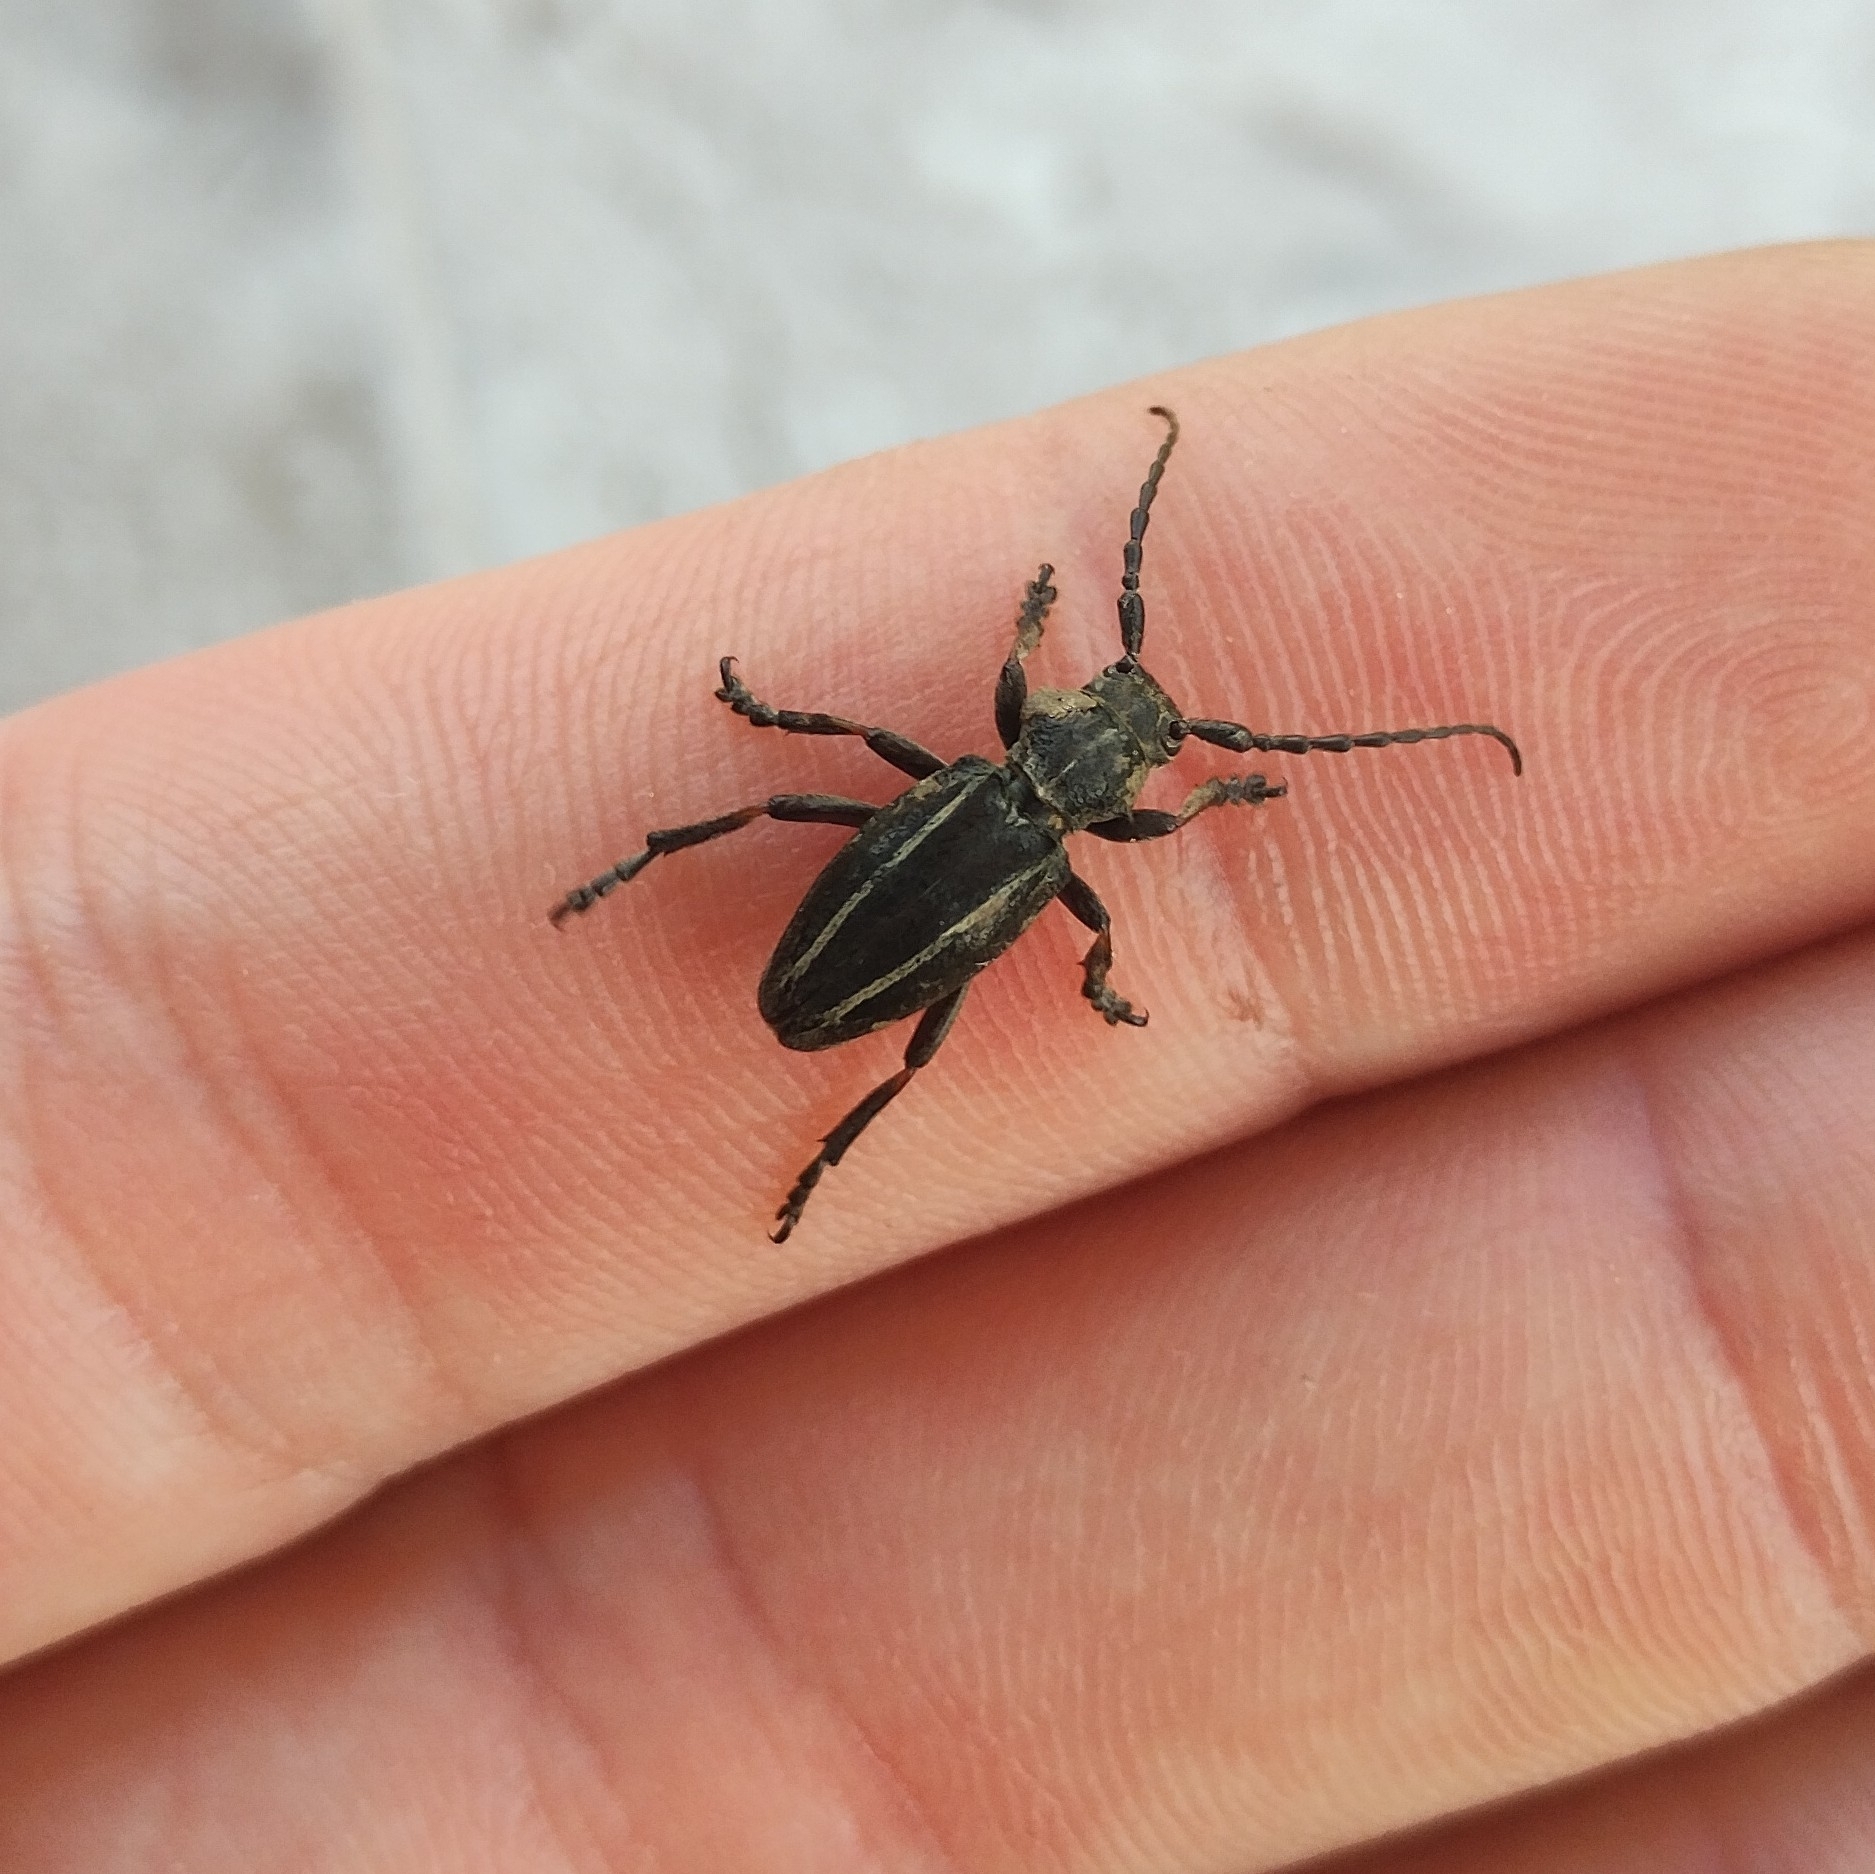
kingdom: Animalia
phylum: Arthropoda
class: Insecta
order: Coleoptera
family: Cerambycidae
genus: Neodorcadion
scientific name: Neodorcadion bilineatum
